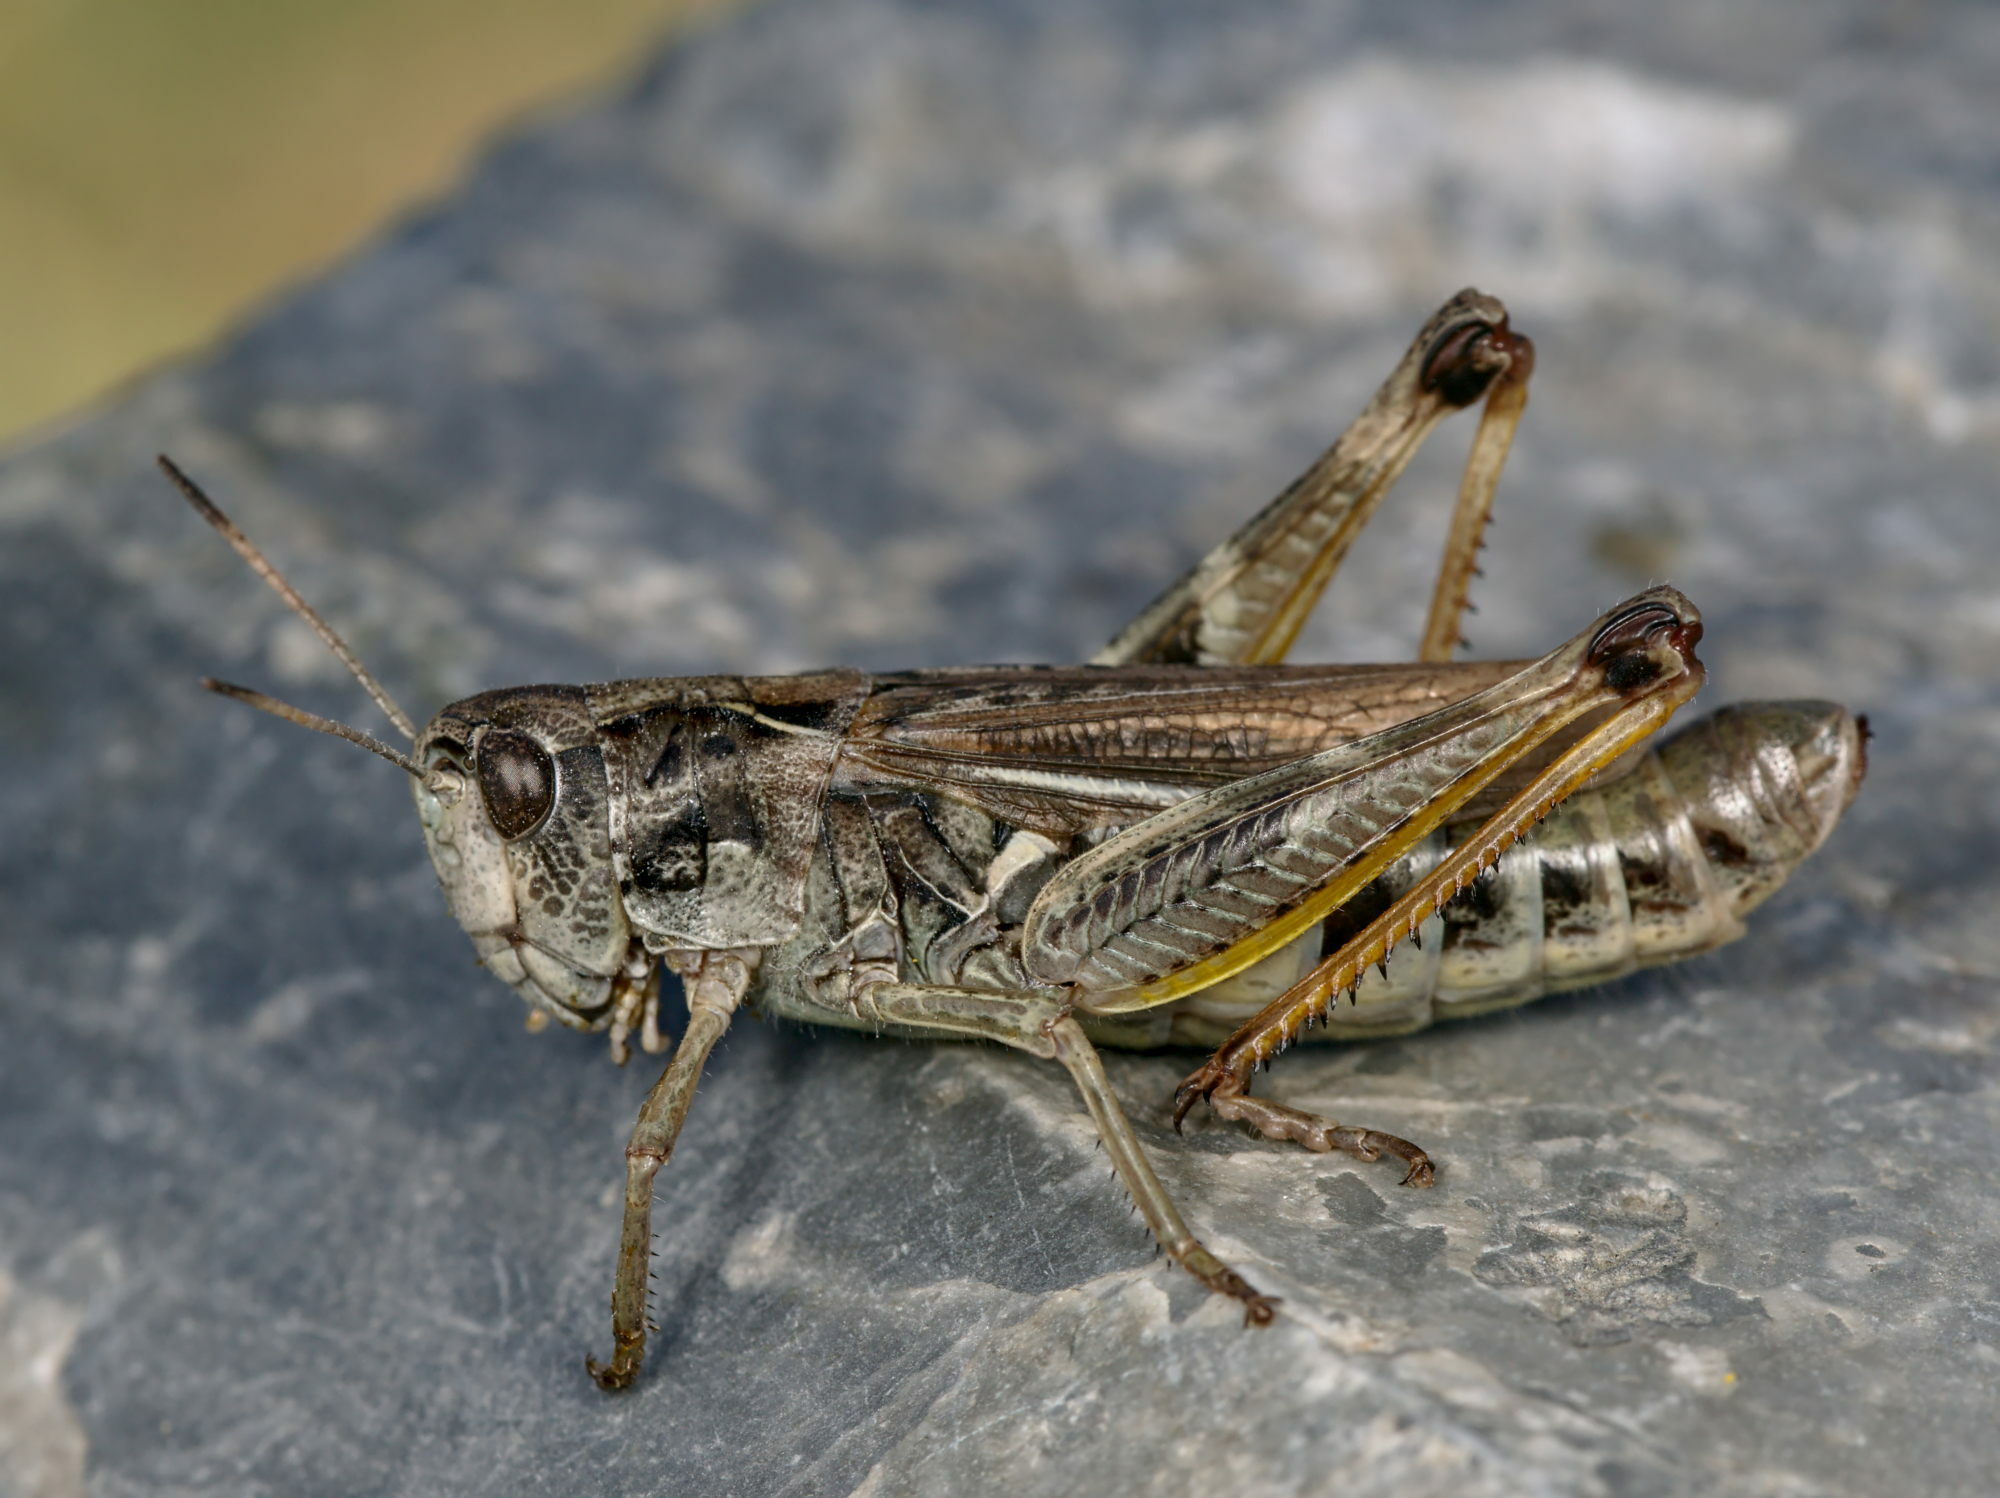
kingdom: Animalia
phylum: Arthropoda
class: Insecta
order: Orthoptera
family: Acrididae
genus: Gomphocerus
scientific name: Gomphocerus sibiricus
